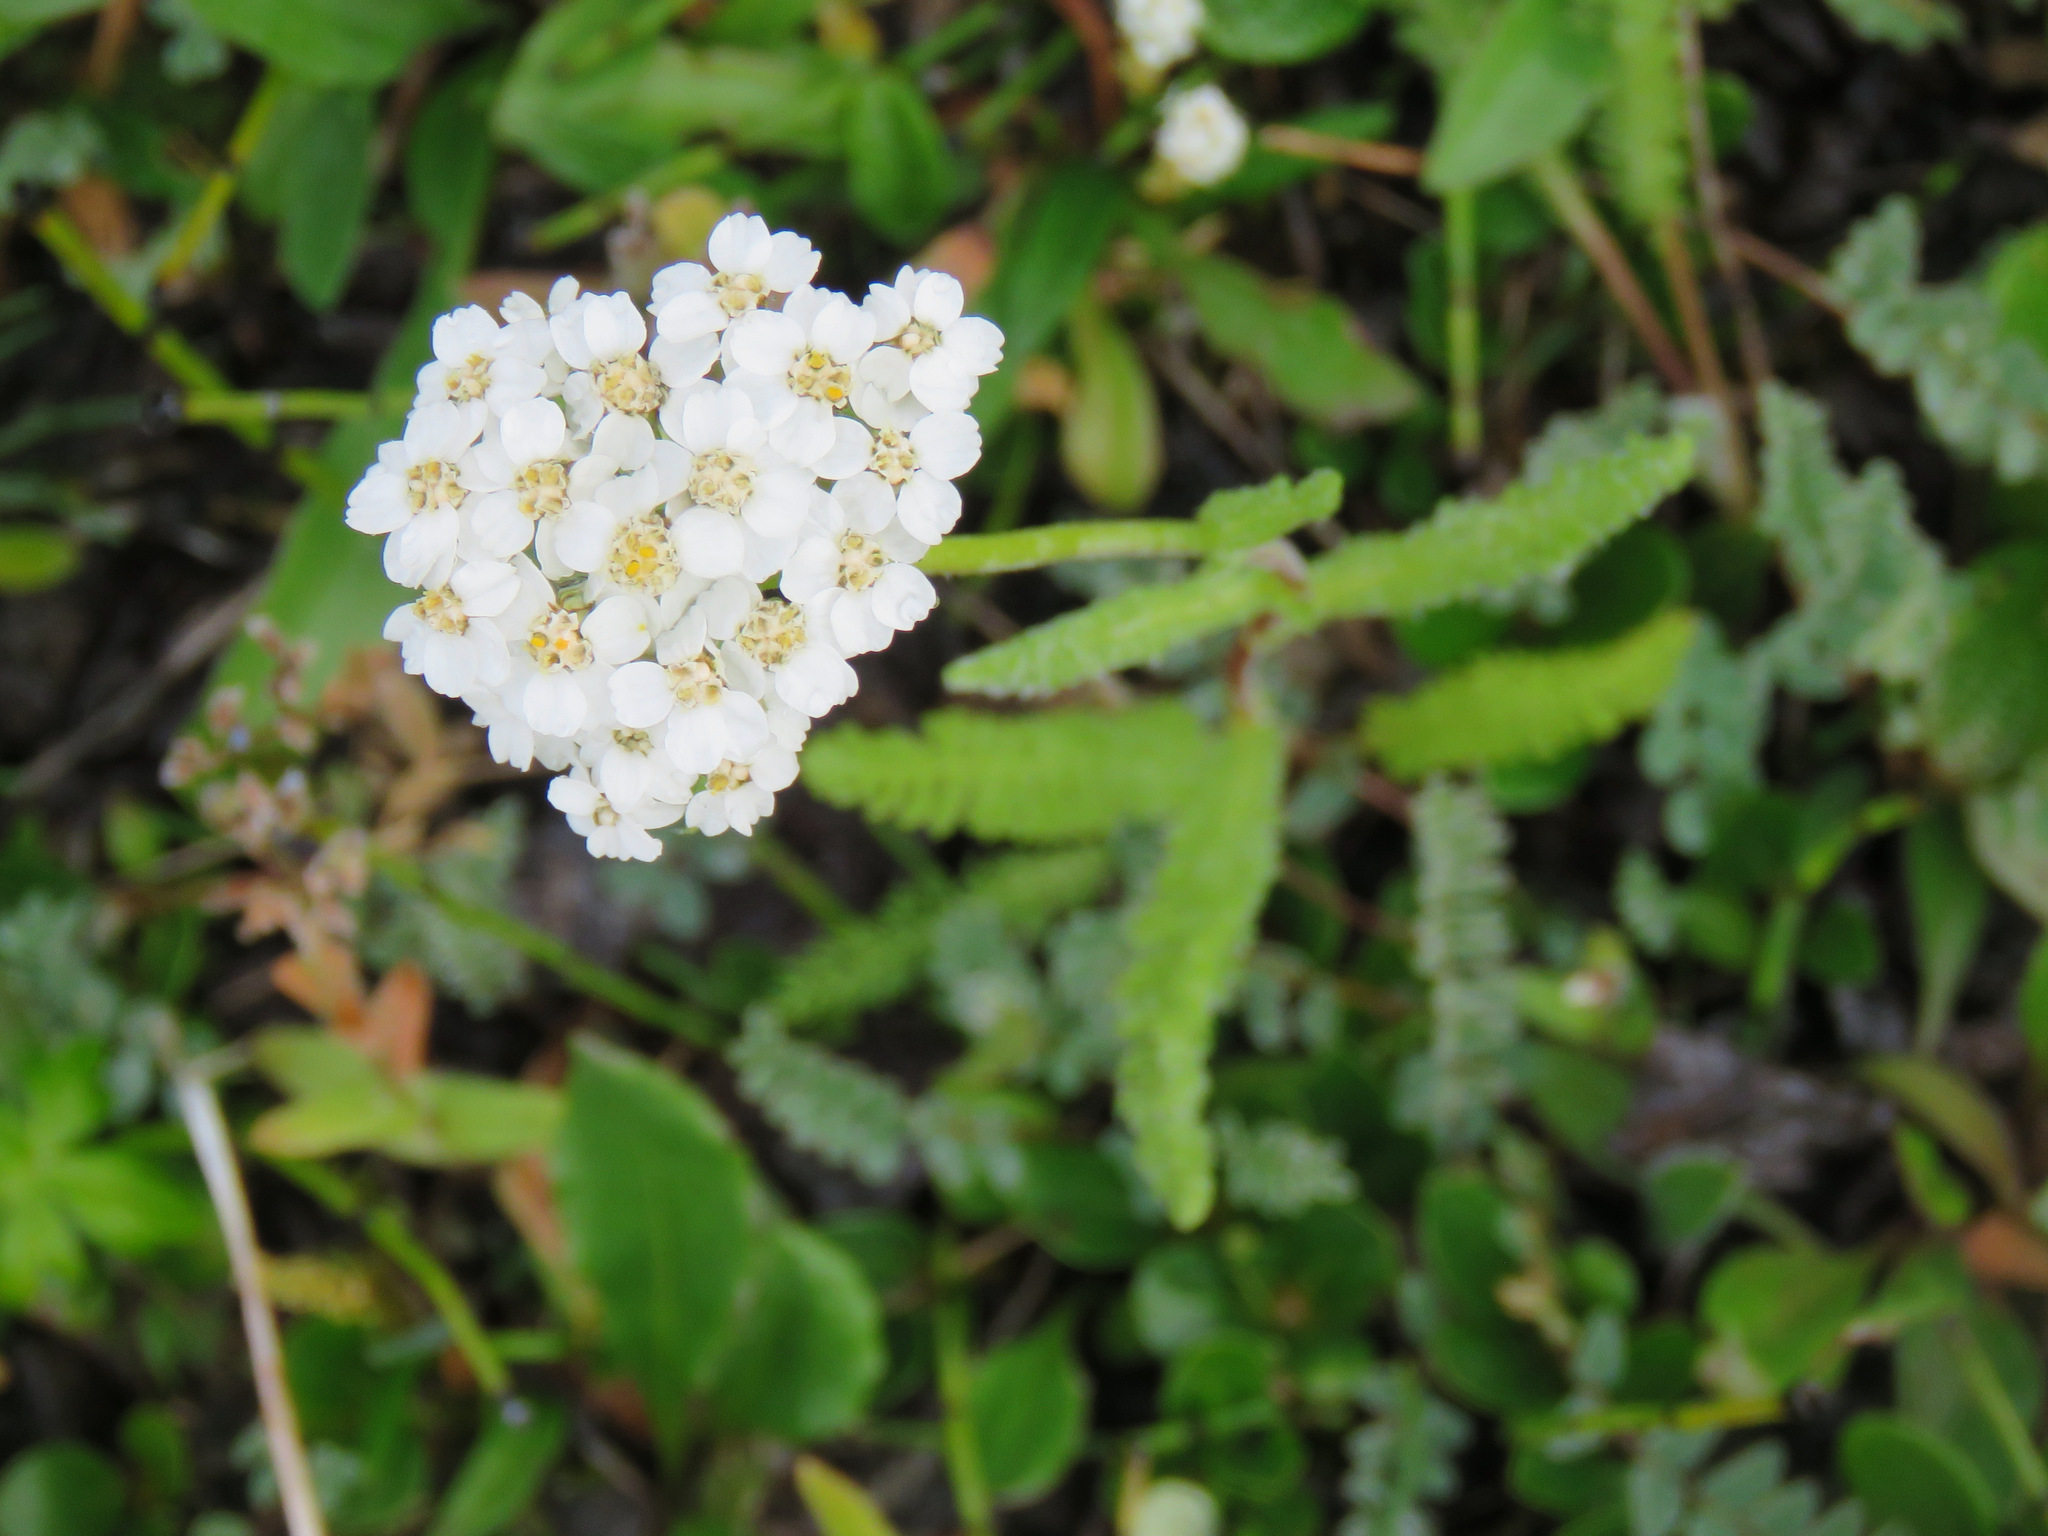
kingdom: Plantae
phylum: Tracheophyta
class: Magnoliopsida
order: Asterales
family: Asteraceae
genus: Achillea
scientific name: Achillea millefolium
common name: Yarrow
